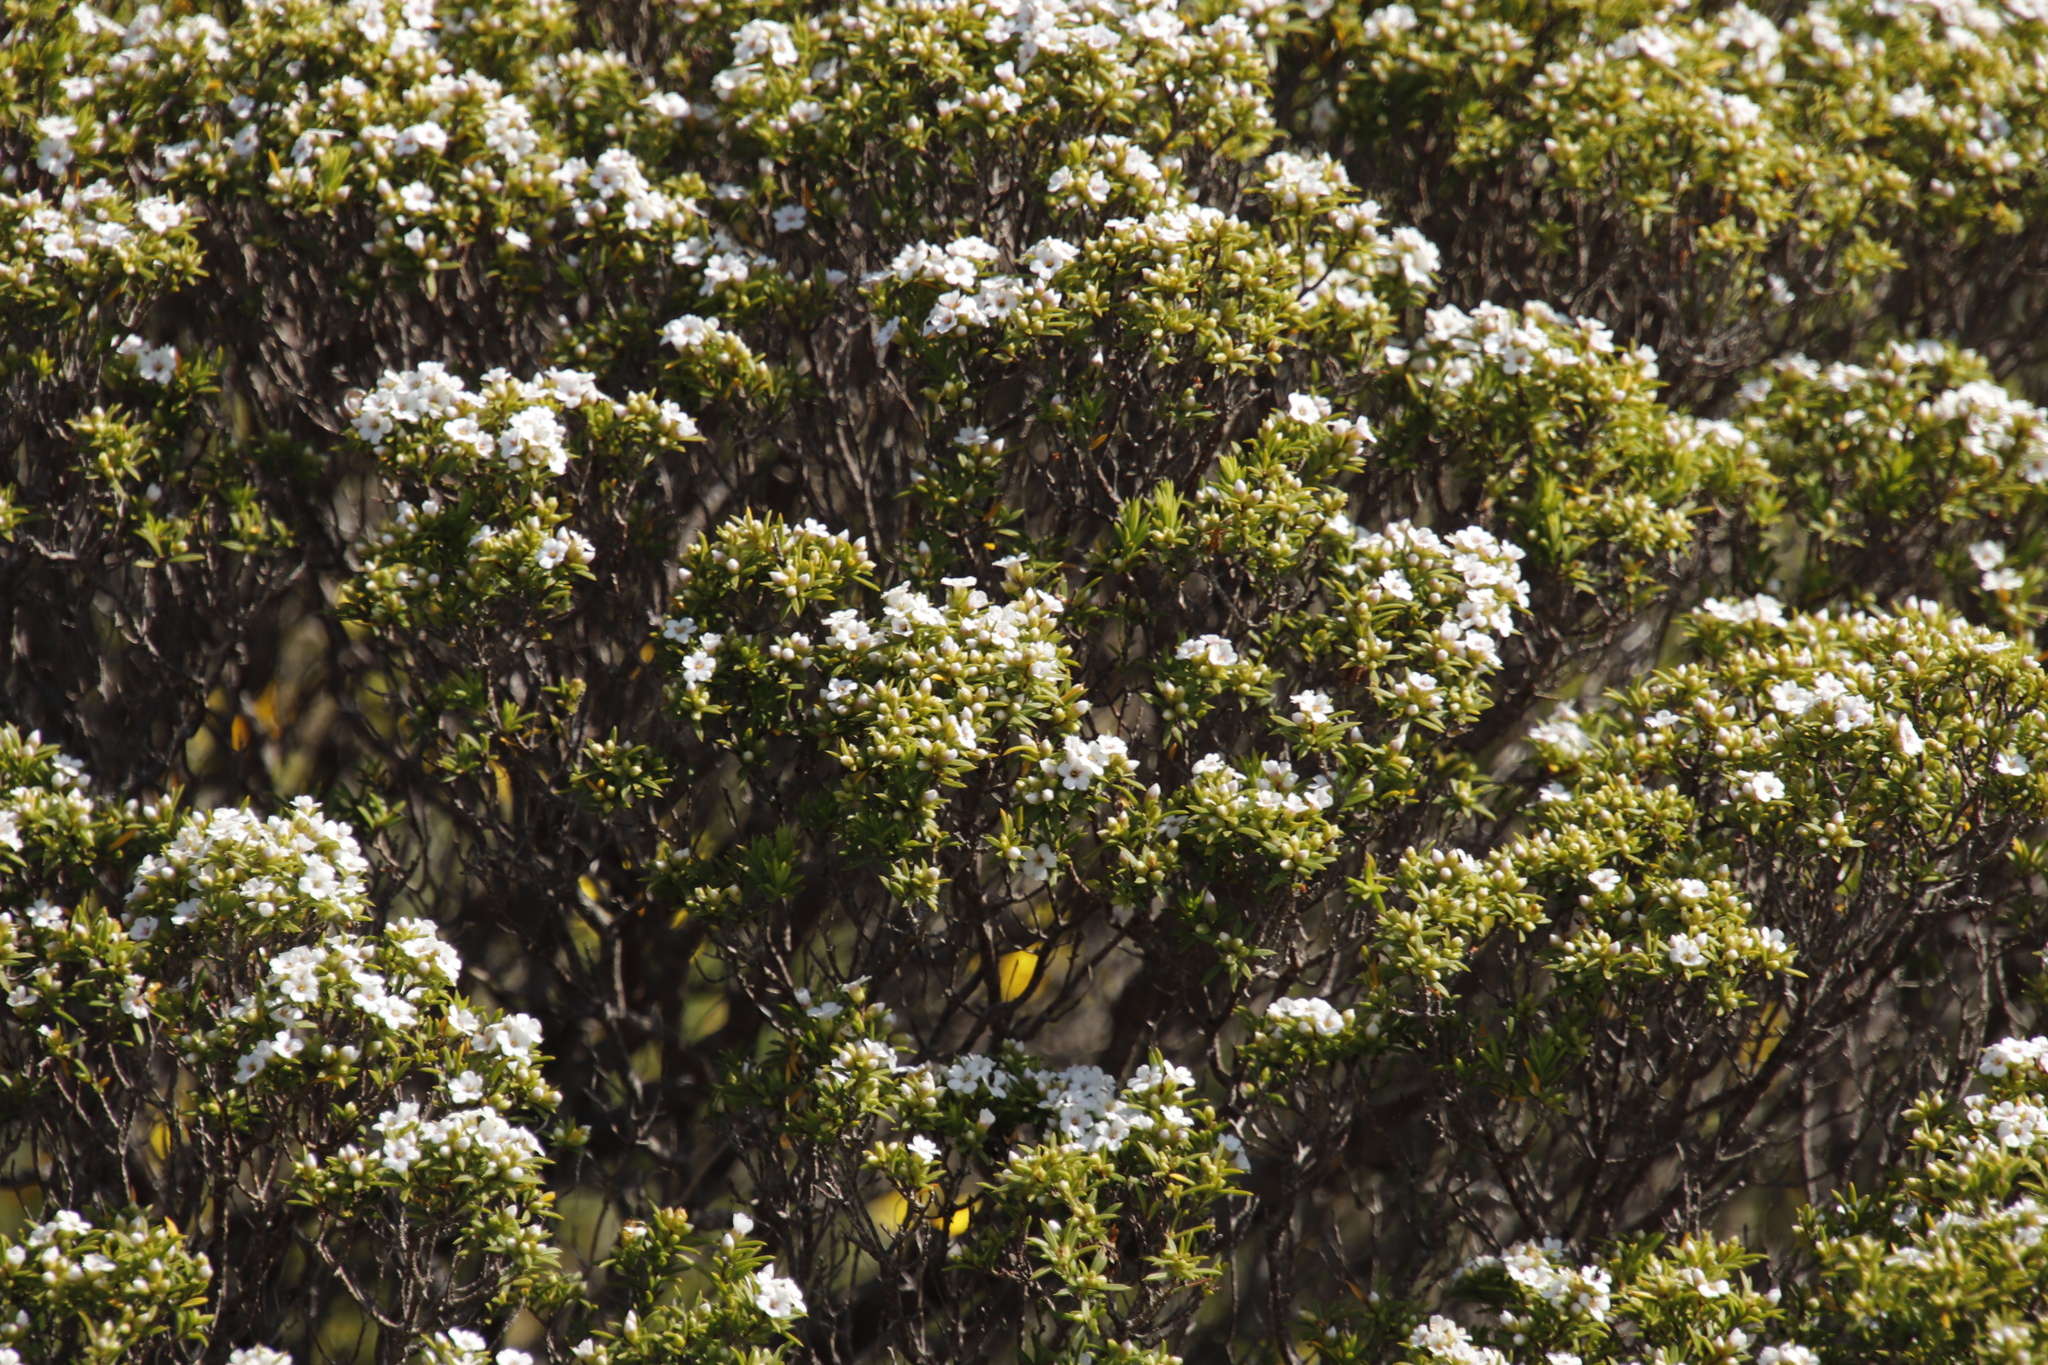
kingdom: Plantae
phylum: Tracheophyta
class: Magnoliopsida
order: Sapindales
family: Rutaceae
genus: Coleonema
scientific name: Coleonema album
